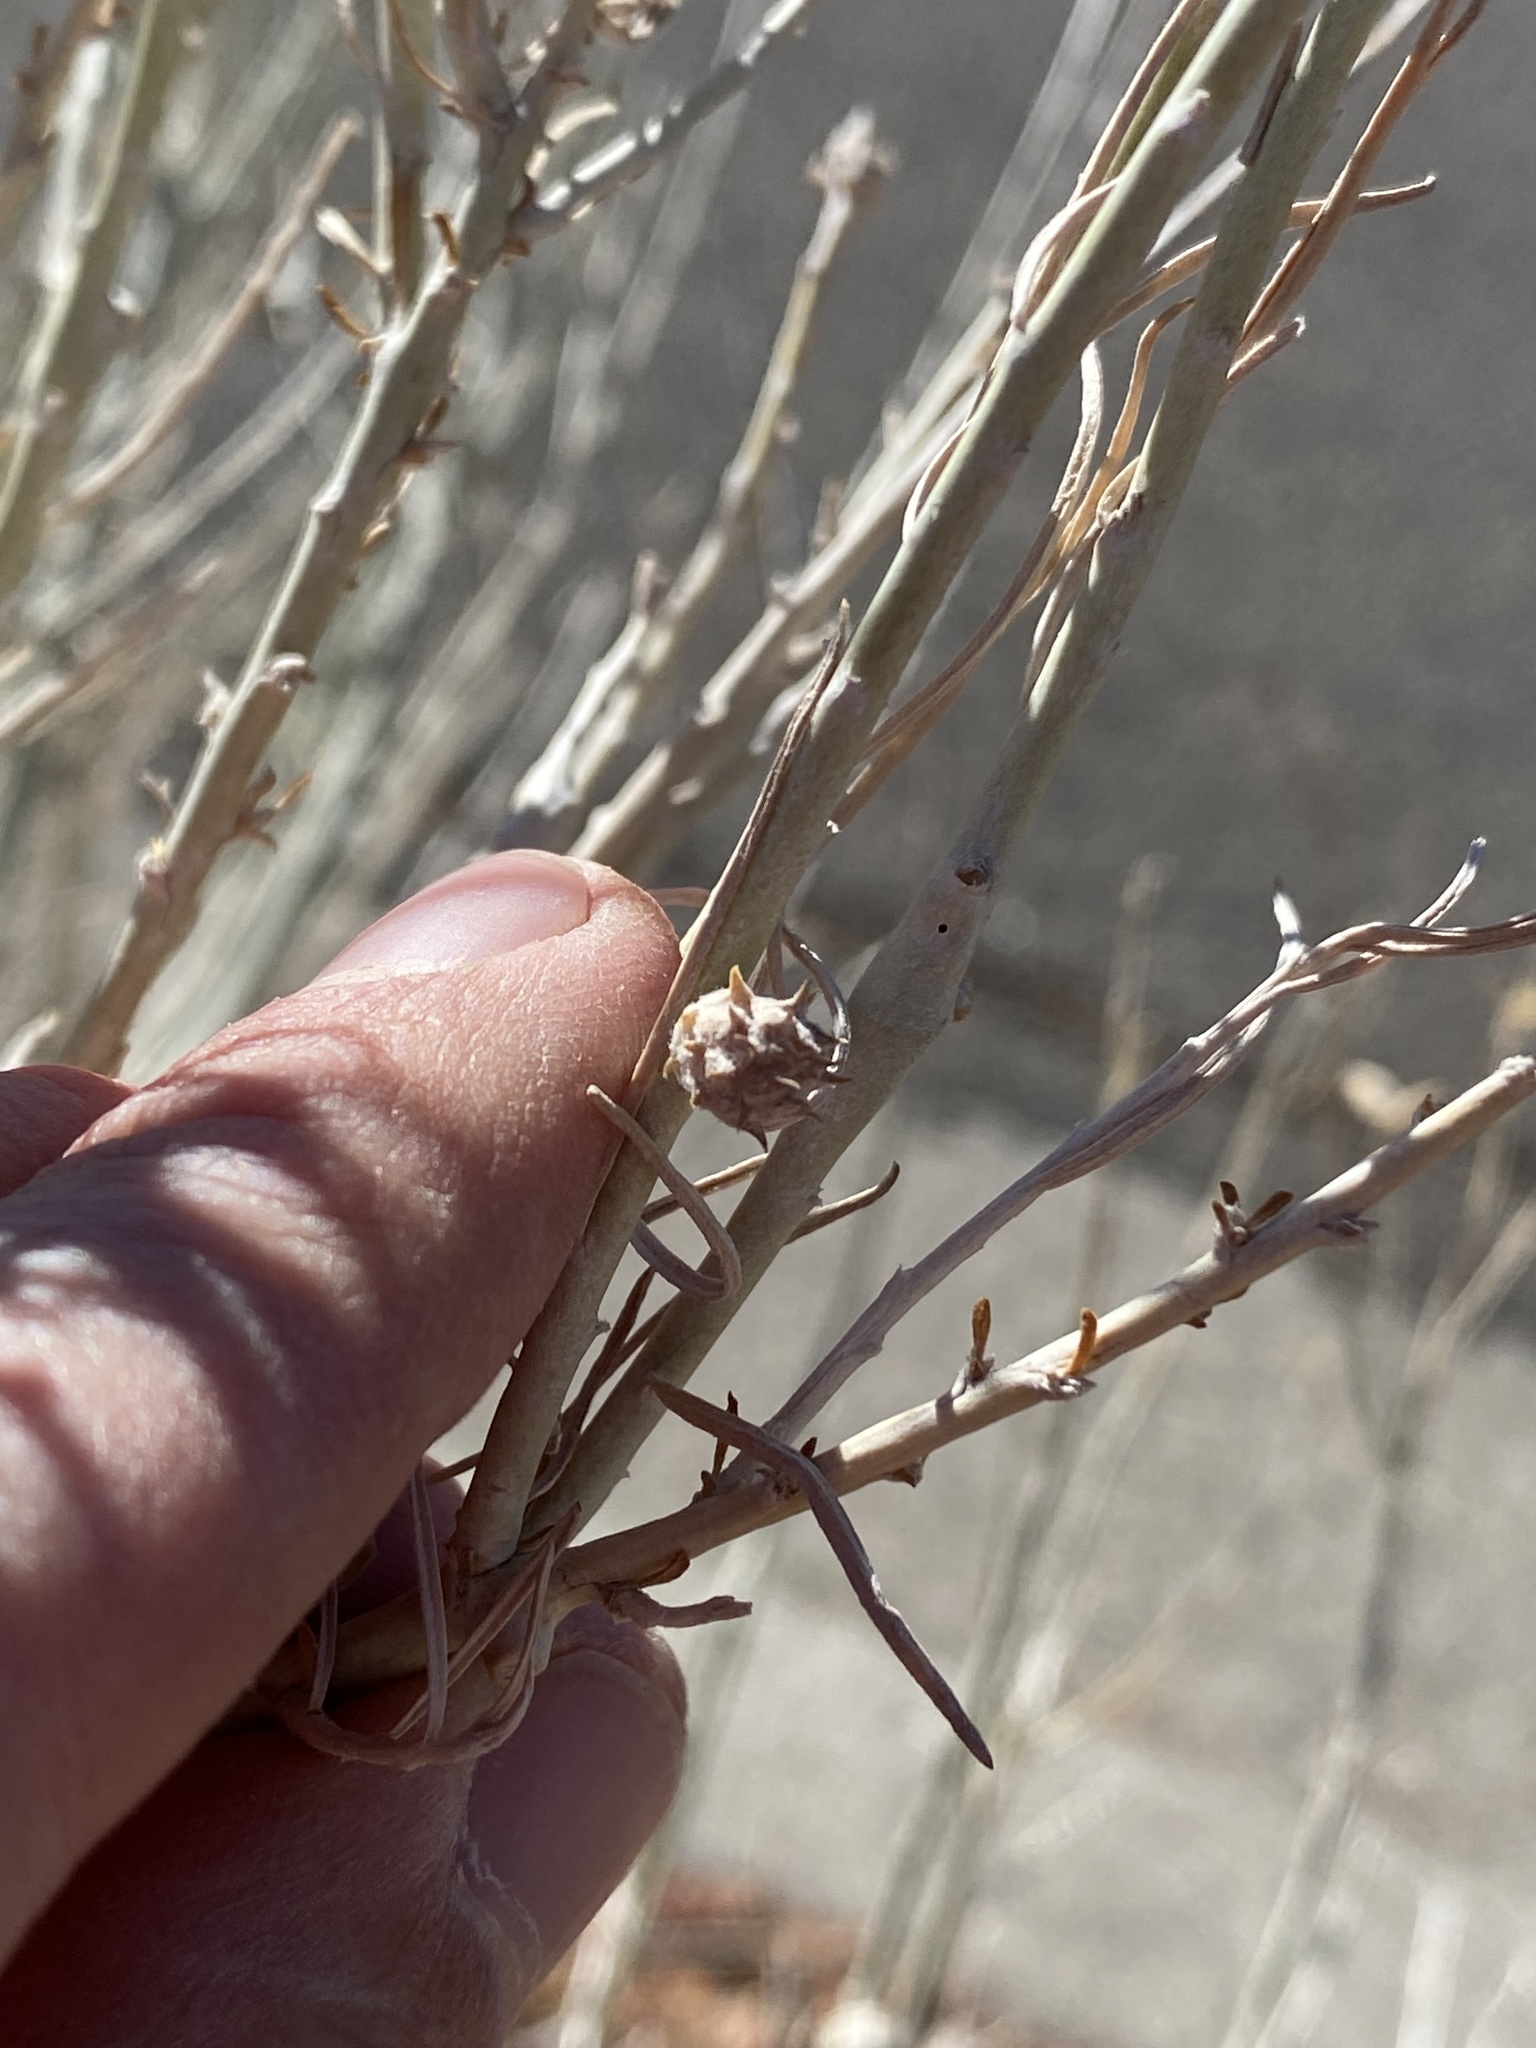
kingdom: Animalia
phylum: Arthropoda
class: Insecta
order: Diptera
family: Cecidomyiidae
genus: Rhopalomyia
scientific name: Rhopalomyia utahensis
